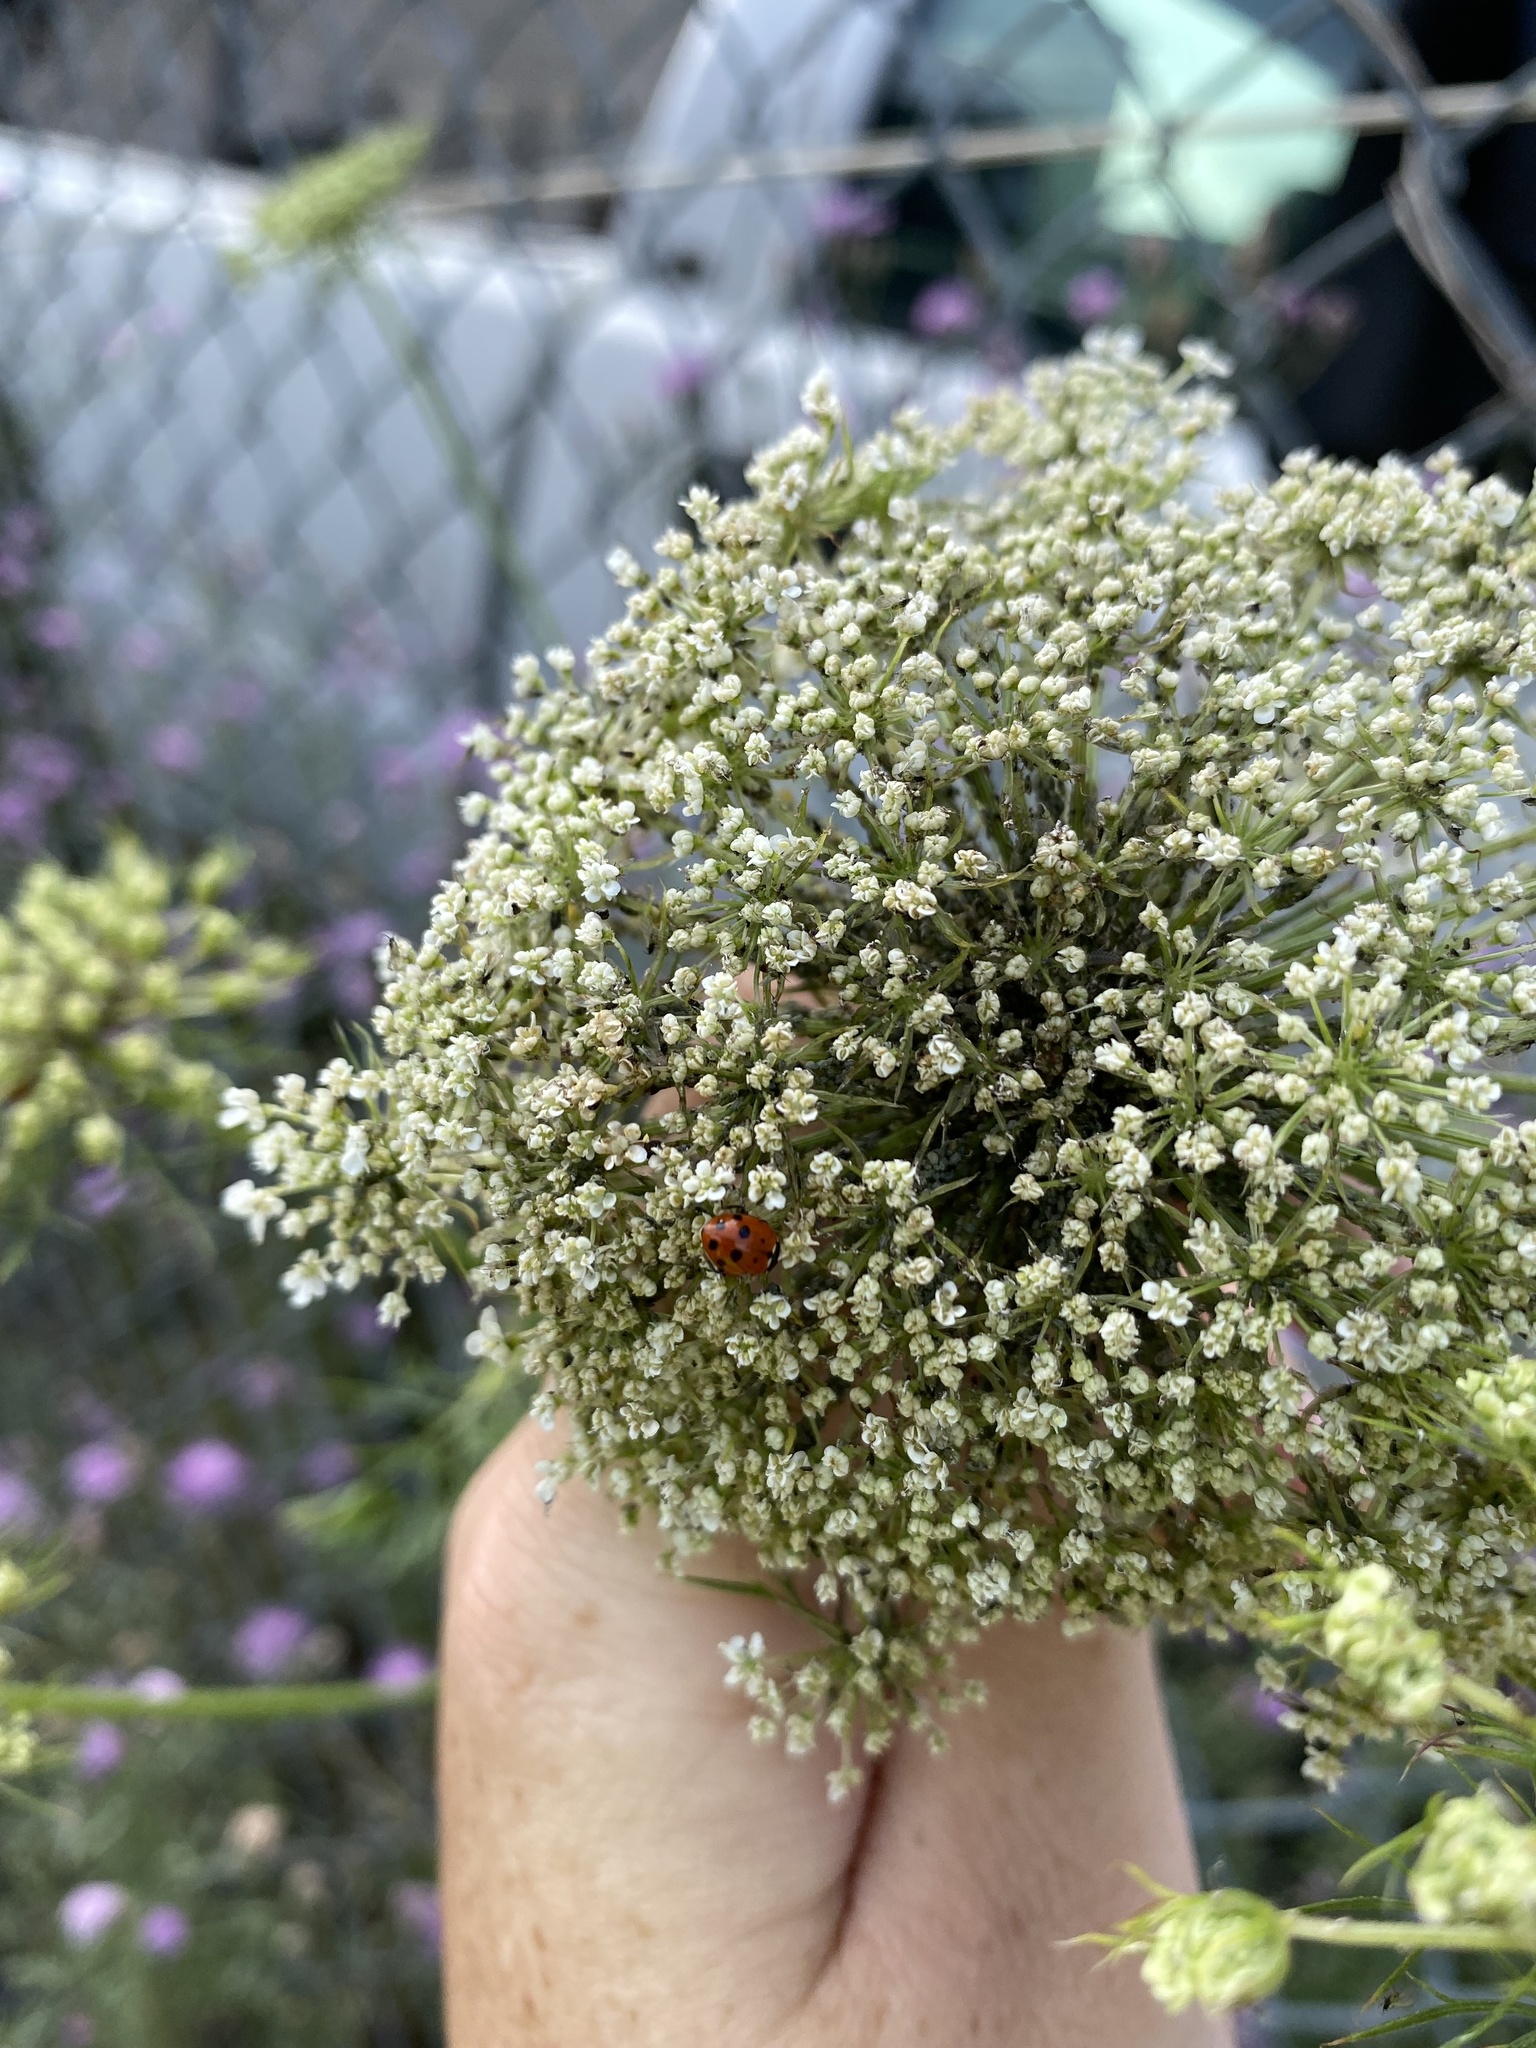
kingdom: Animalia
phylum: Arthropoda
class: Insecta
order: Coleoptera
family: Coccinellidae
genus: Hippodamia
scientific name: Hippodamia variegata
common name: Ladybird beetle
